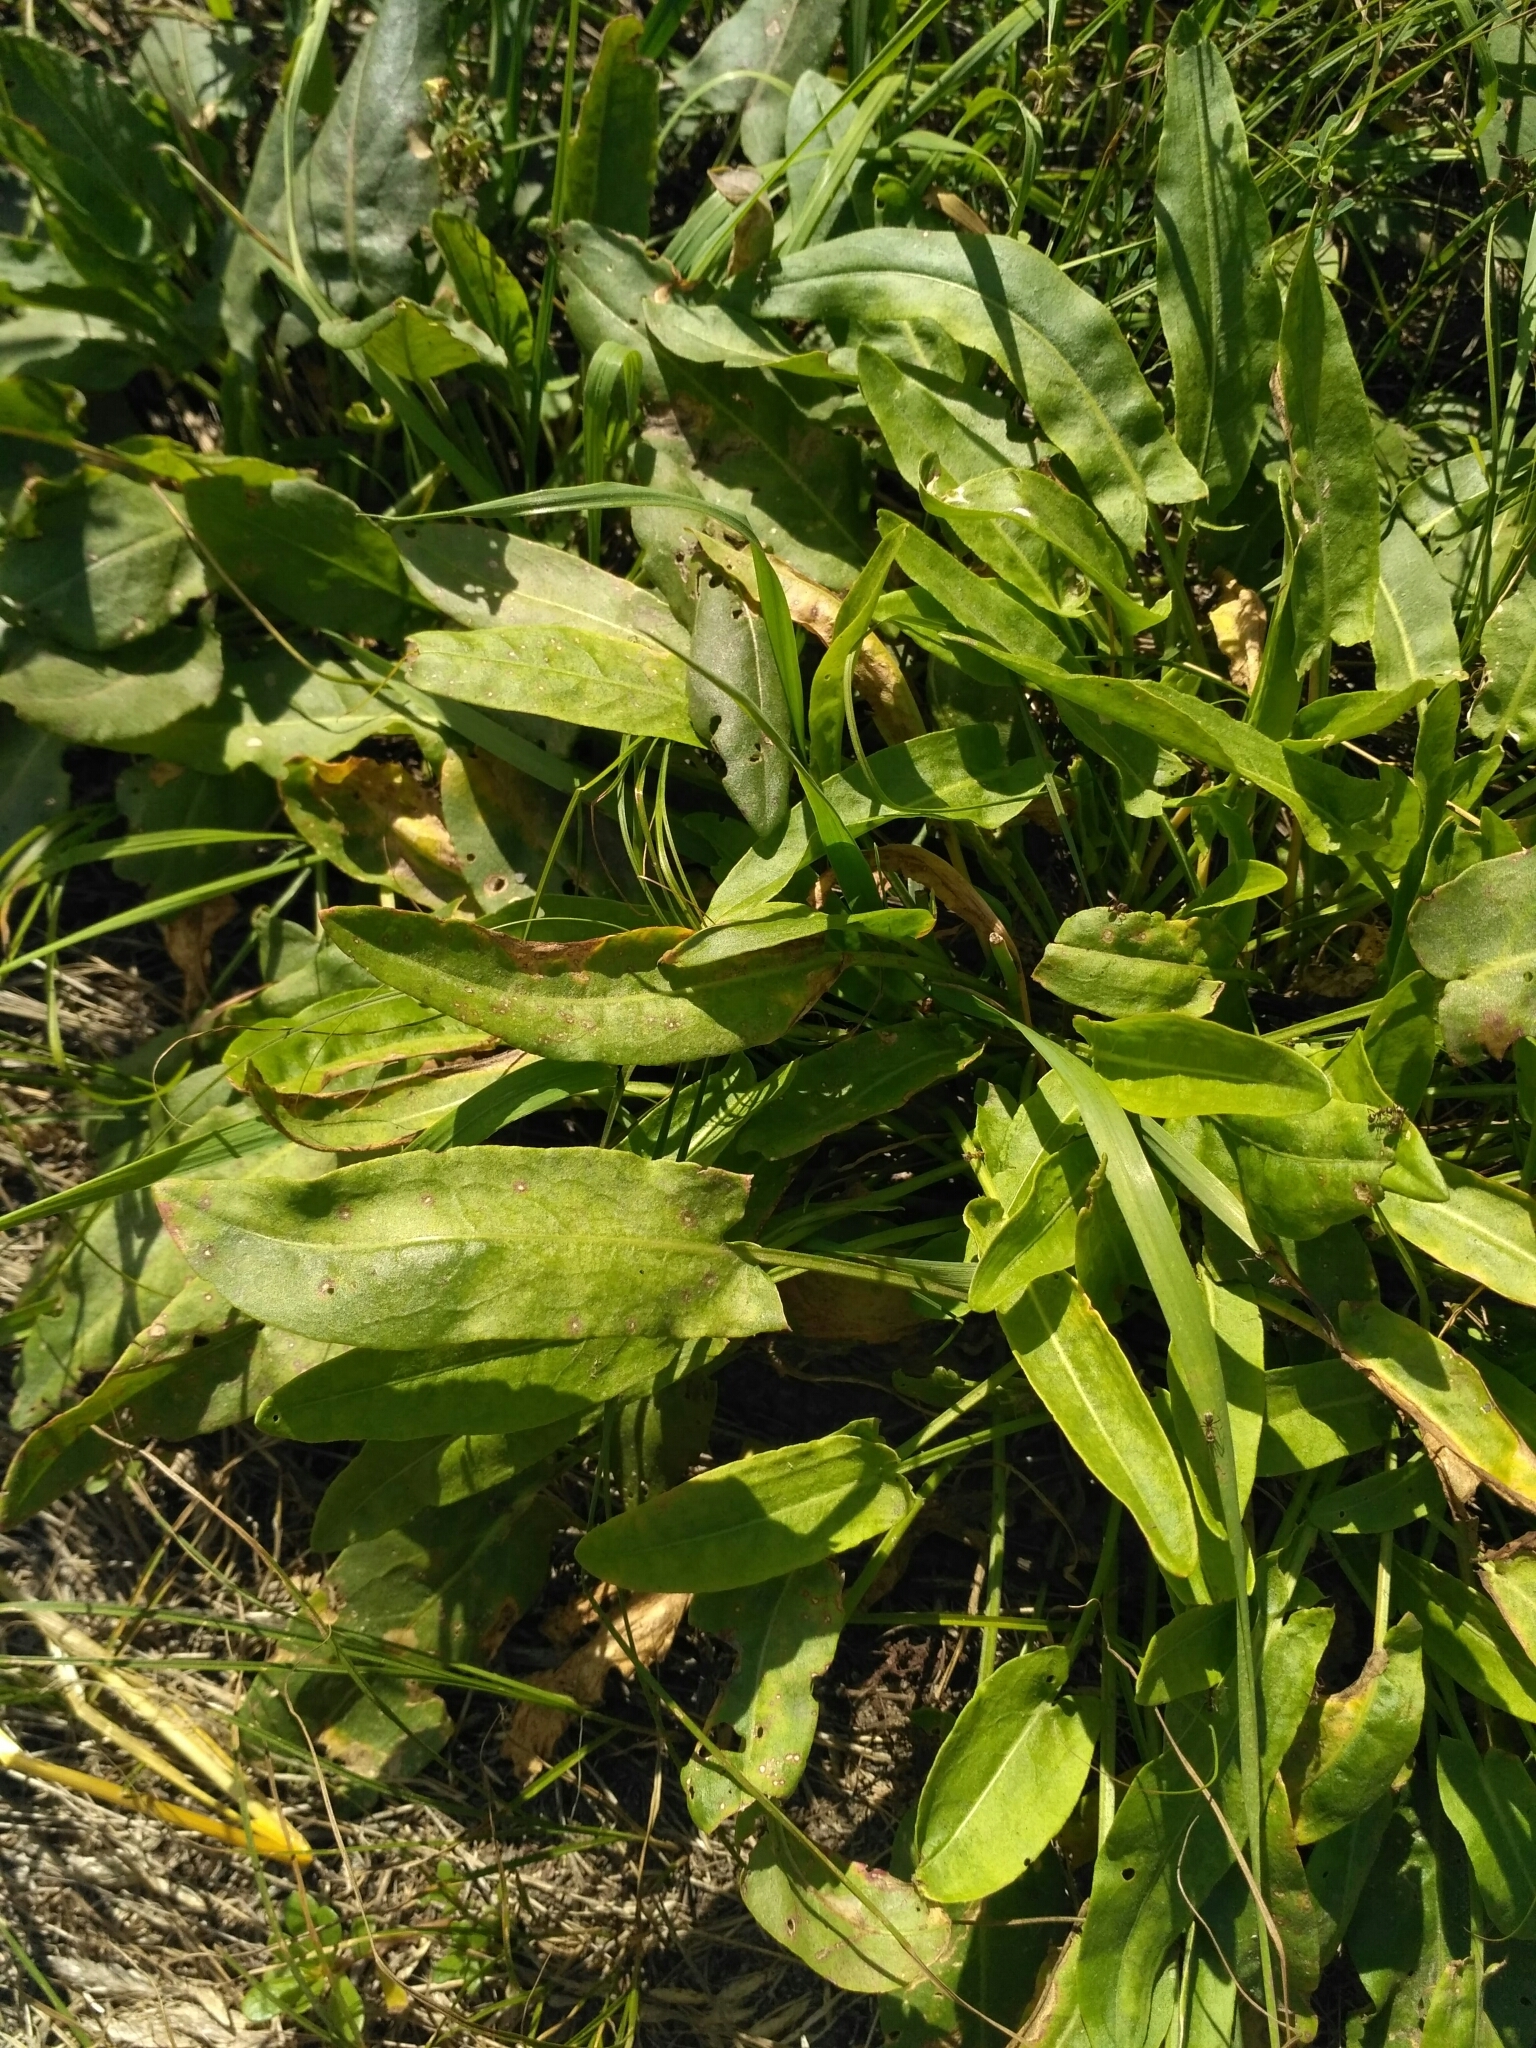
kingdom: Plantae
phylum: Tracheophyta
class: Magnoliopsida
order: Caryophyllales
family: Polygonaceae
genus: Rumex
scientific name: Rumex thyrsiflorus
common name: Garden sorrel
